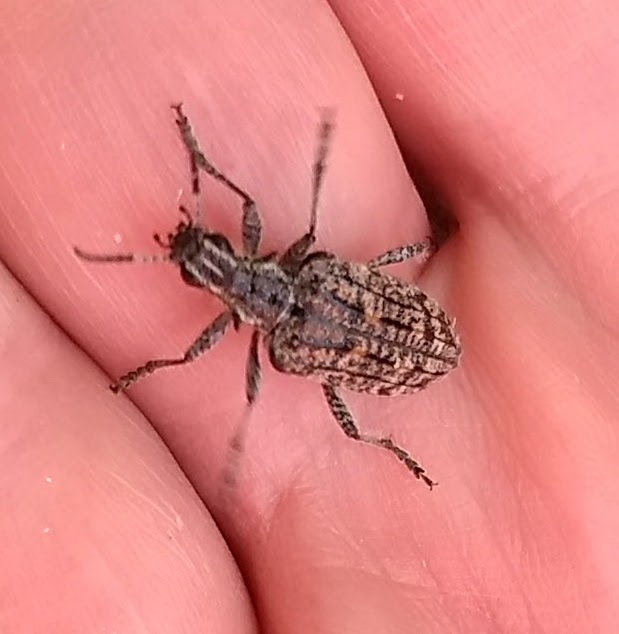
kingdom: Animalia
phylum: Arthropoda
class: Insecta
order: Coleoptera
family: Cerambycidae
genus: Rhagium
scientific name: Rhagium inquisitor
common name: Ribbed pine borer
